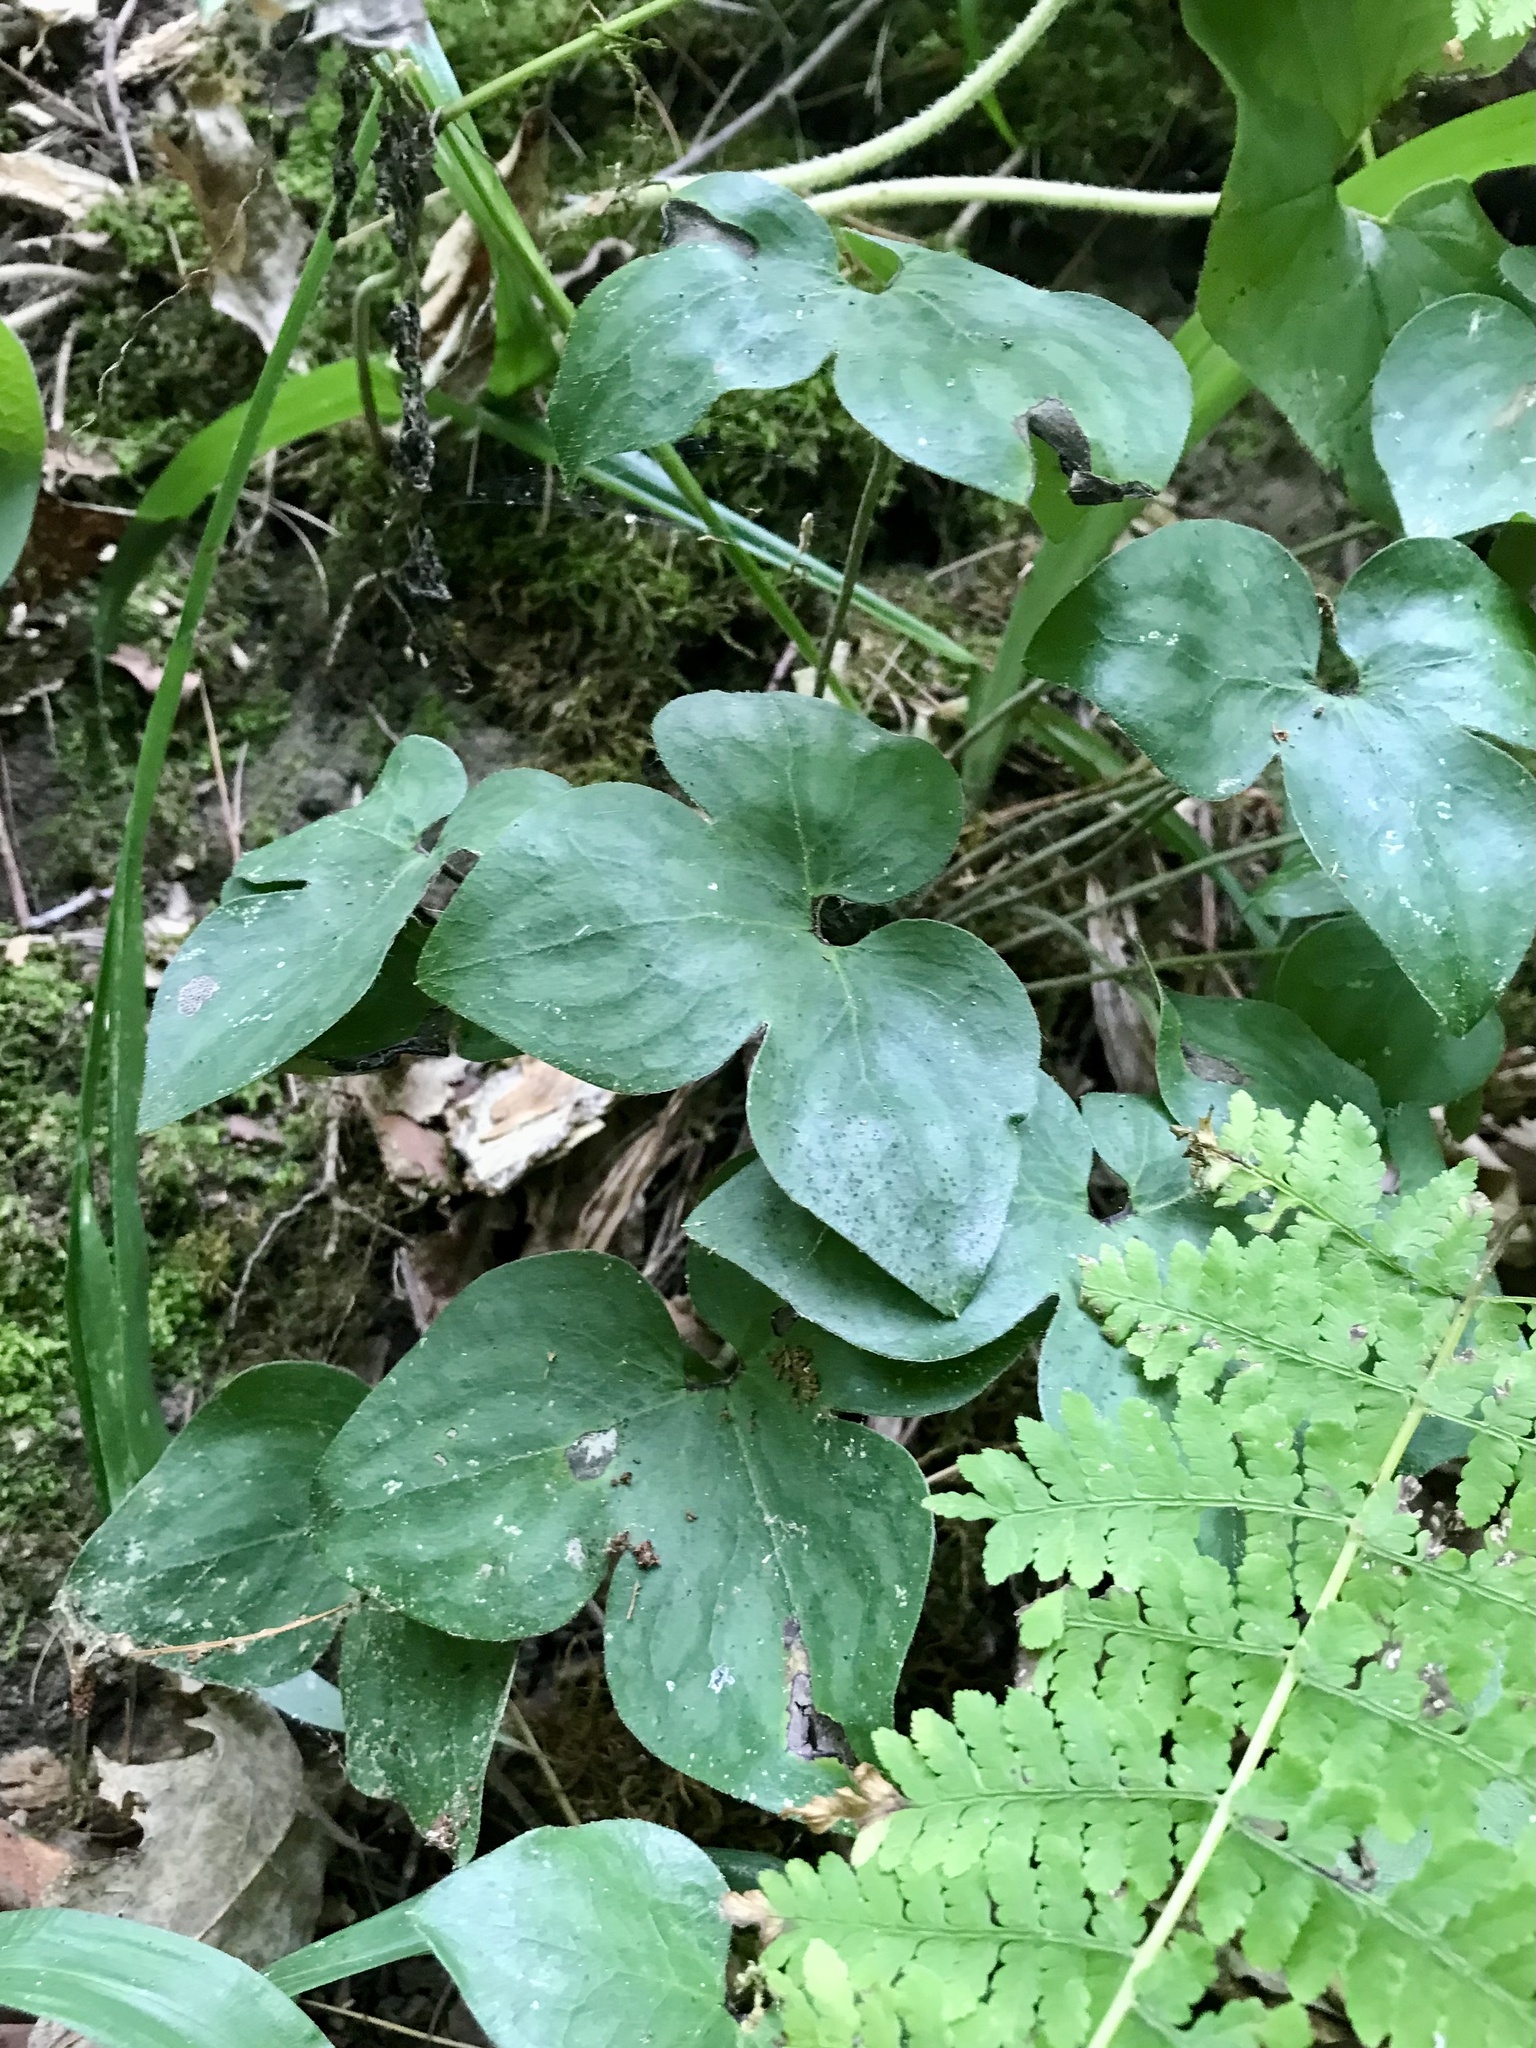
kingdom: Plantae
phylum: Tracheophyta
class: Magnoliopsida
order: Ranunculales
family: Ranunculaceae
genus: Hepatica
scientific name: Hepatica acutiloba
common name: Sharp-lobed hepatica
